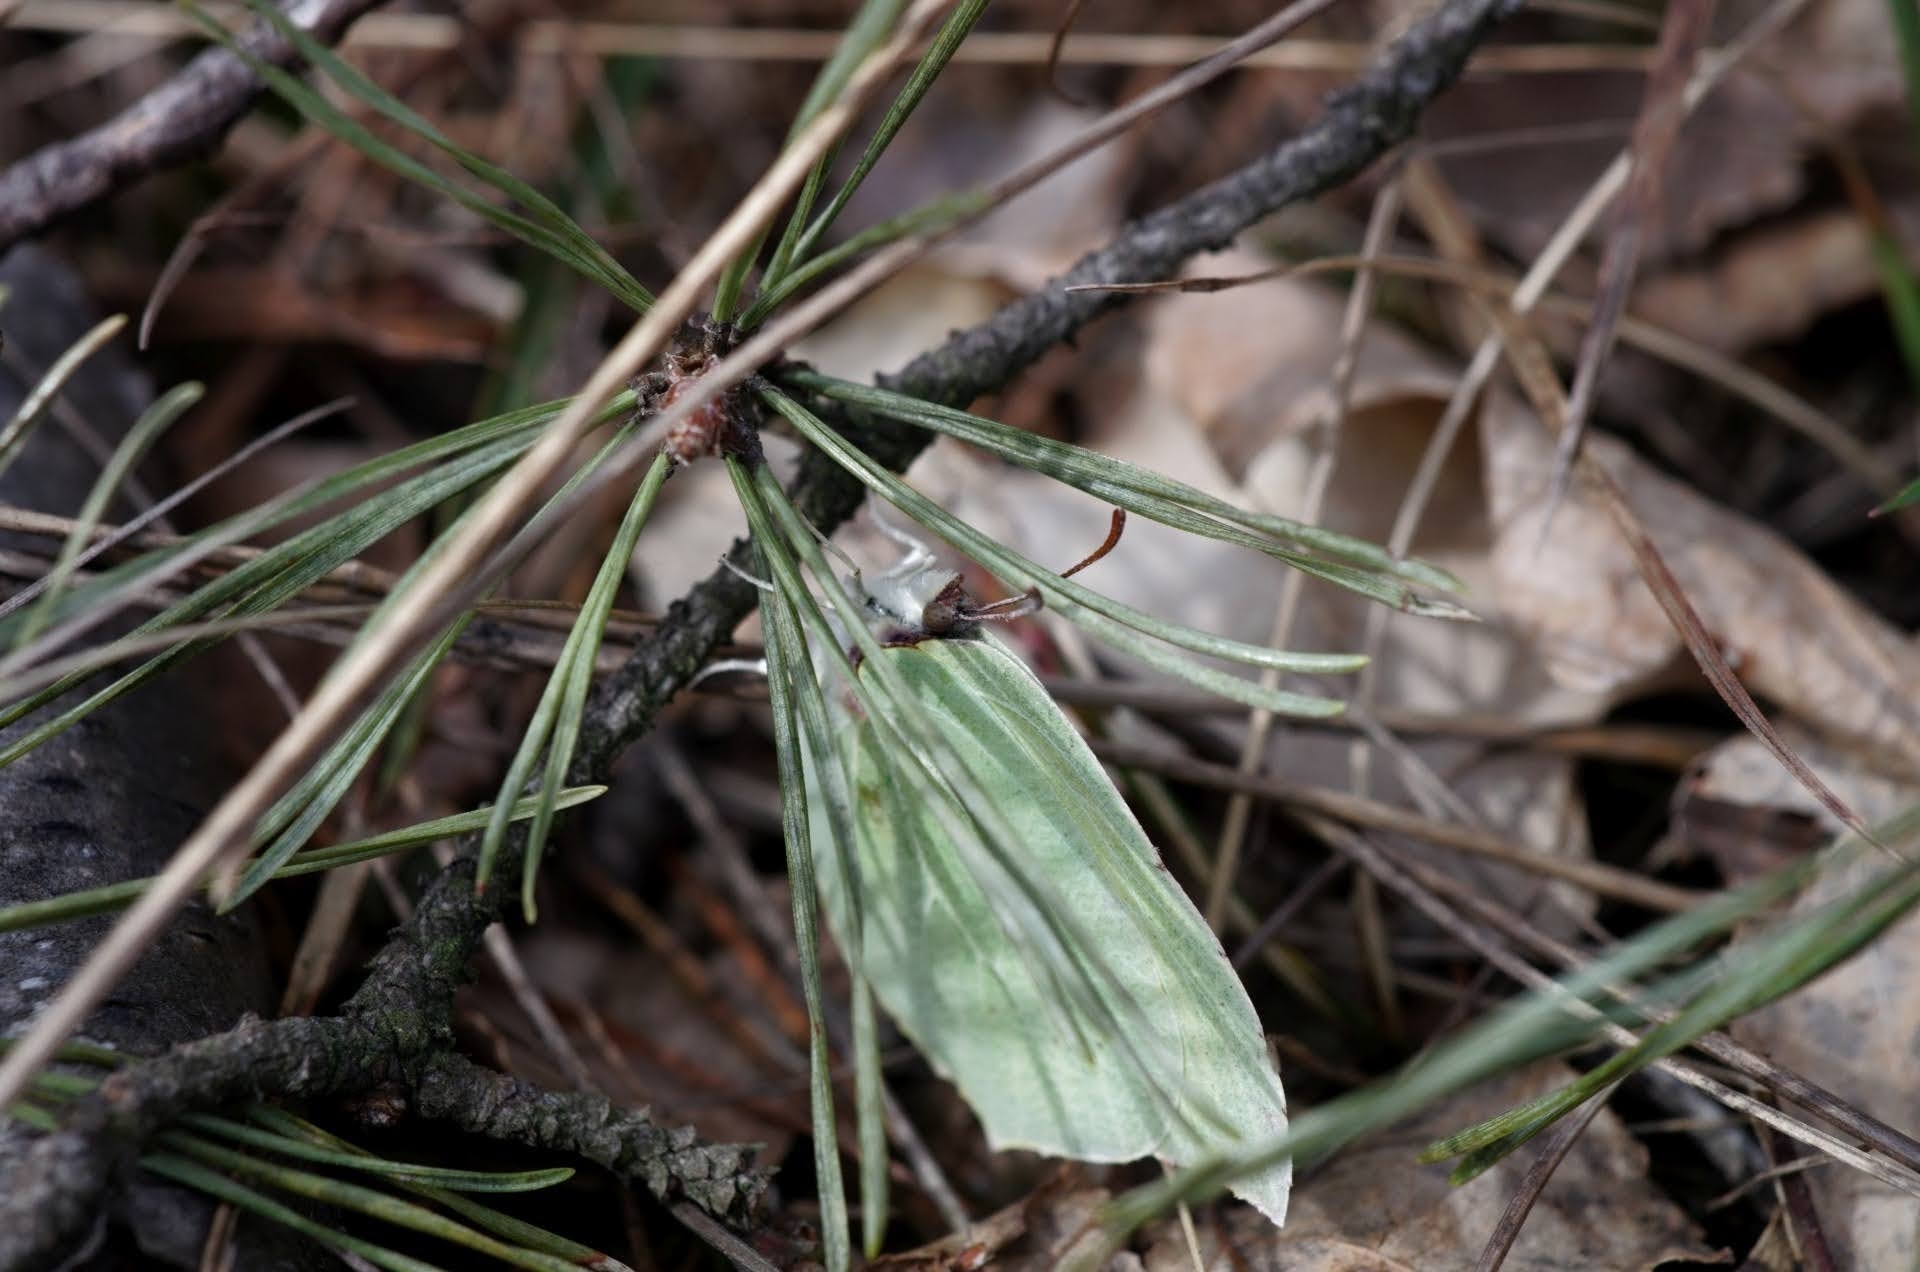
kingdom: Animalia
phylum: Arthropoda
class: Insecta
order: Lepidoptera
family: Pieridae
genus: Gonepteryx
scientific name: Gonepteryx rhamni
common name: Brimstone
